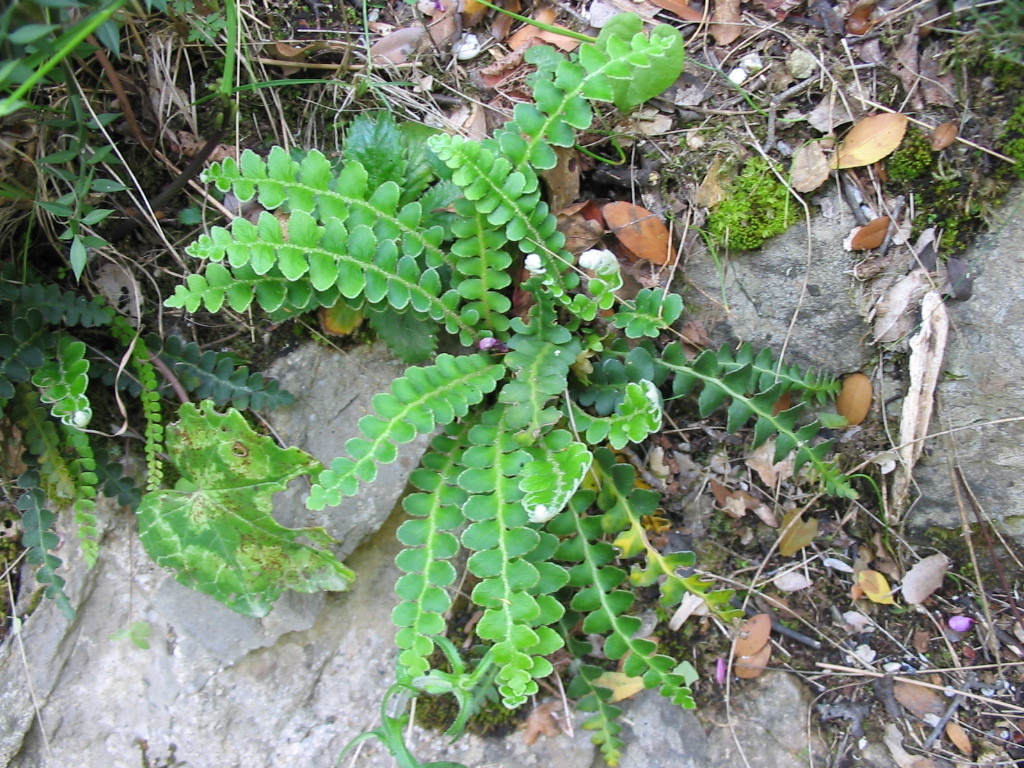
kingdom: Plantae
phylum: Tracheophyta
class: Polypodiopsida
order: Polypodiales
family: Aspleniaceae
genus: Asplenium
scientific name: Asplenium ceterach
